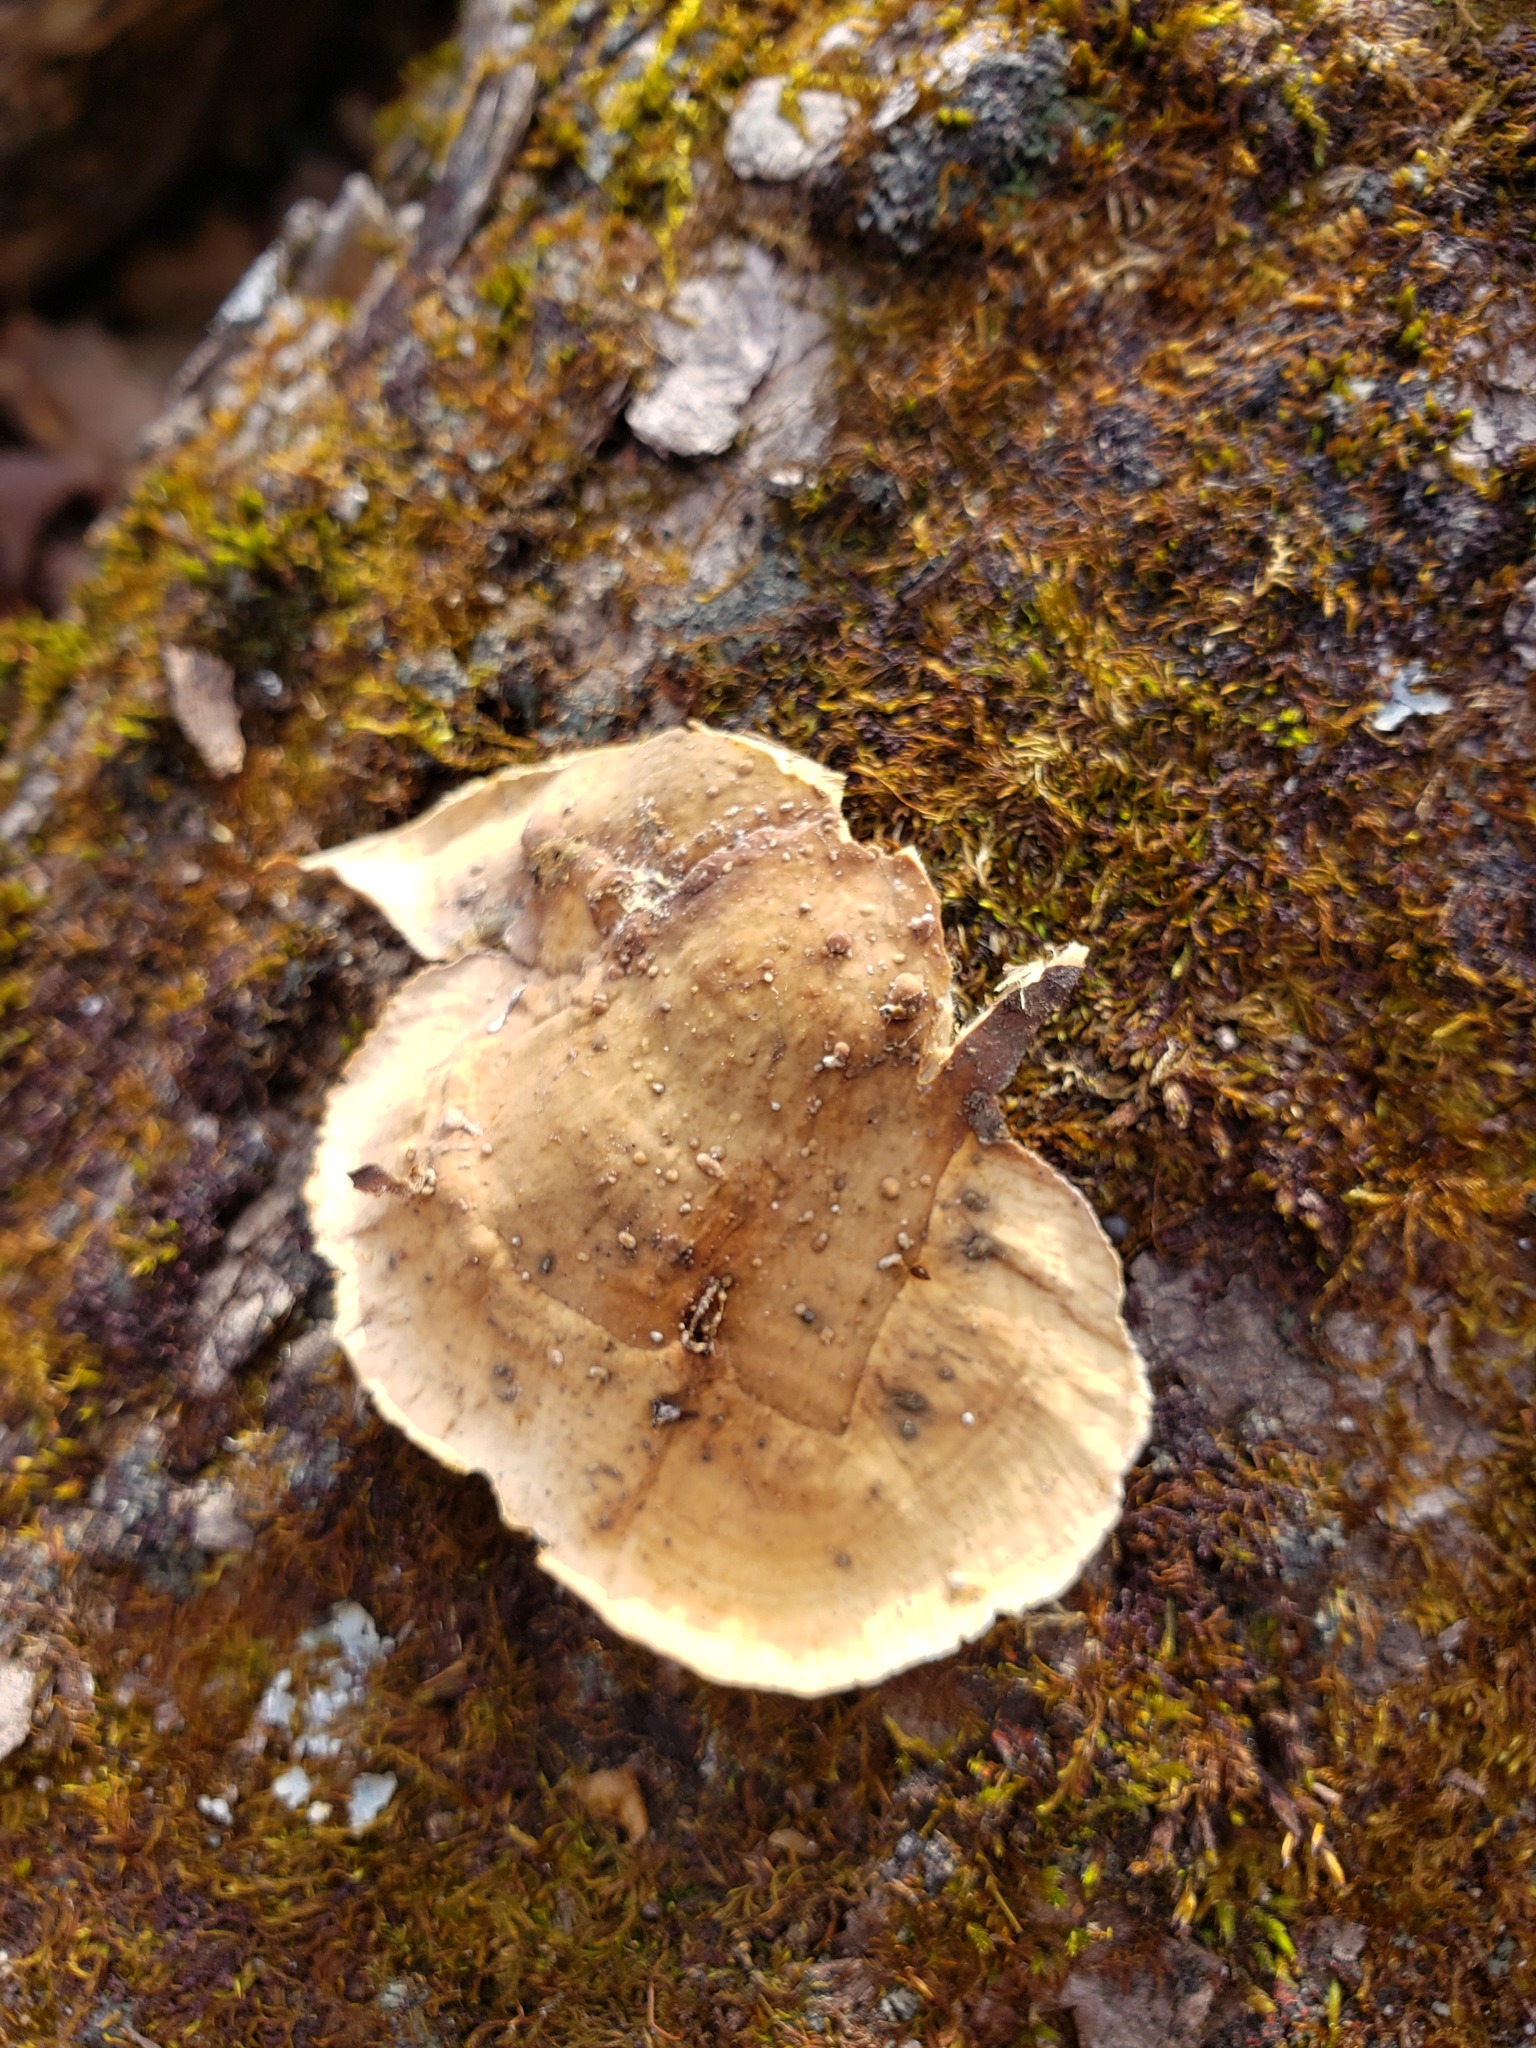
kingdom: Fungi
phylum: Basidiomycota
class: Agaricomycetes
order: Russulales
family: Stereaceae
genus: Stereum
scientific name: Stereum subtomentosum
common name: Yellowing curtain crust
